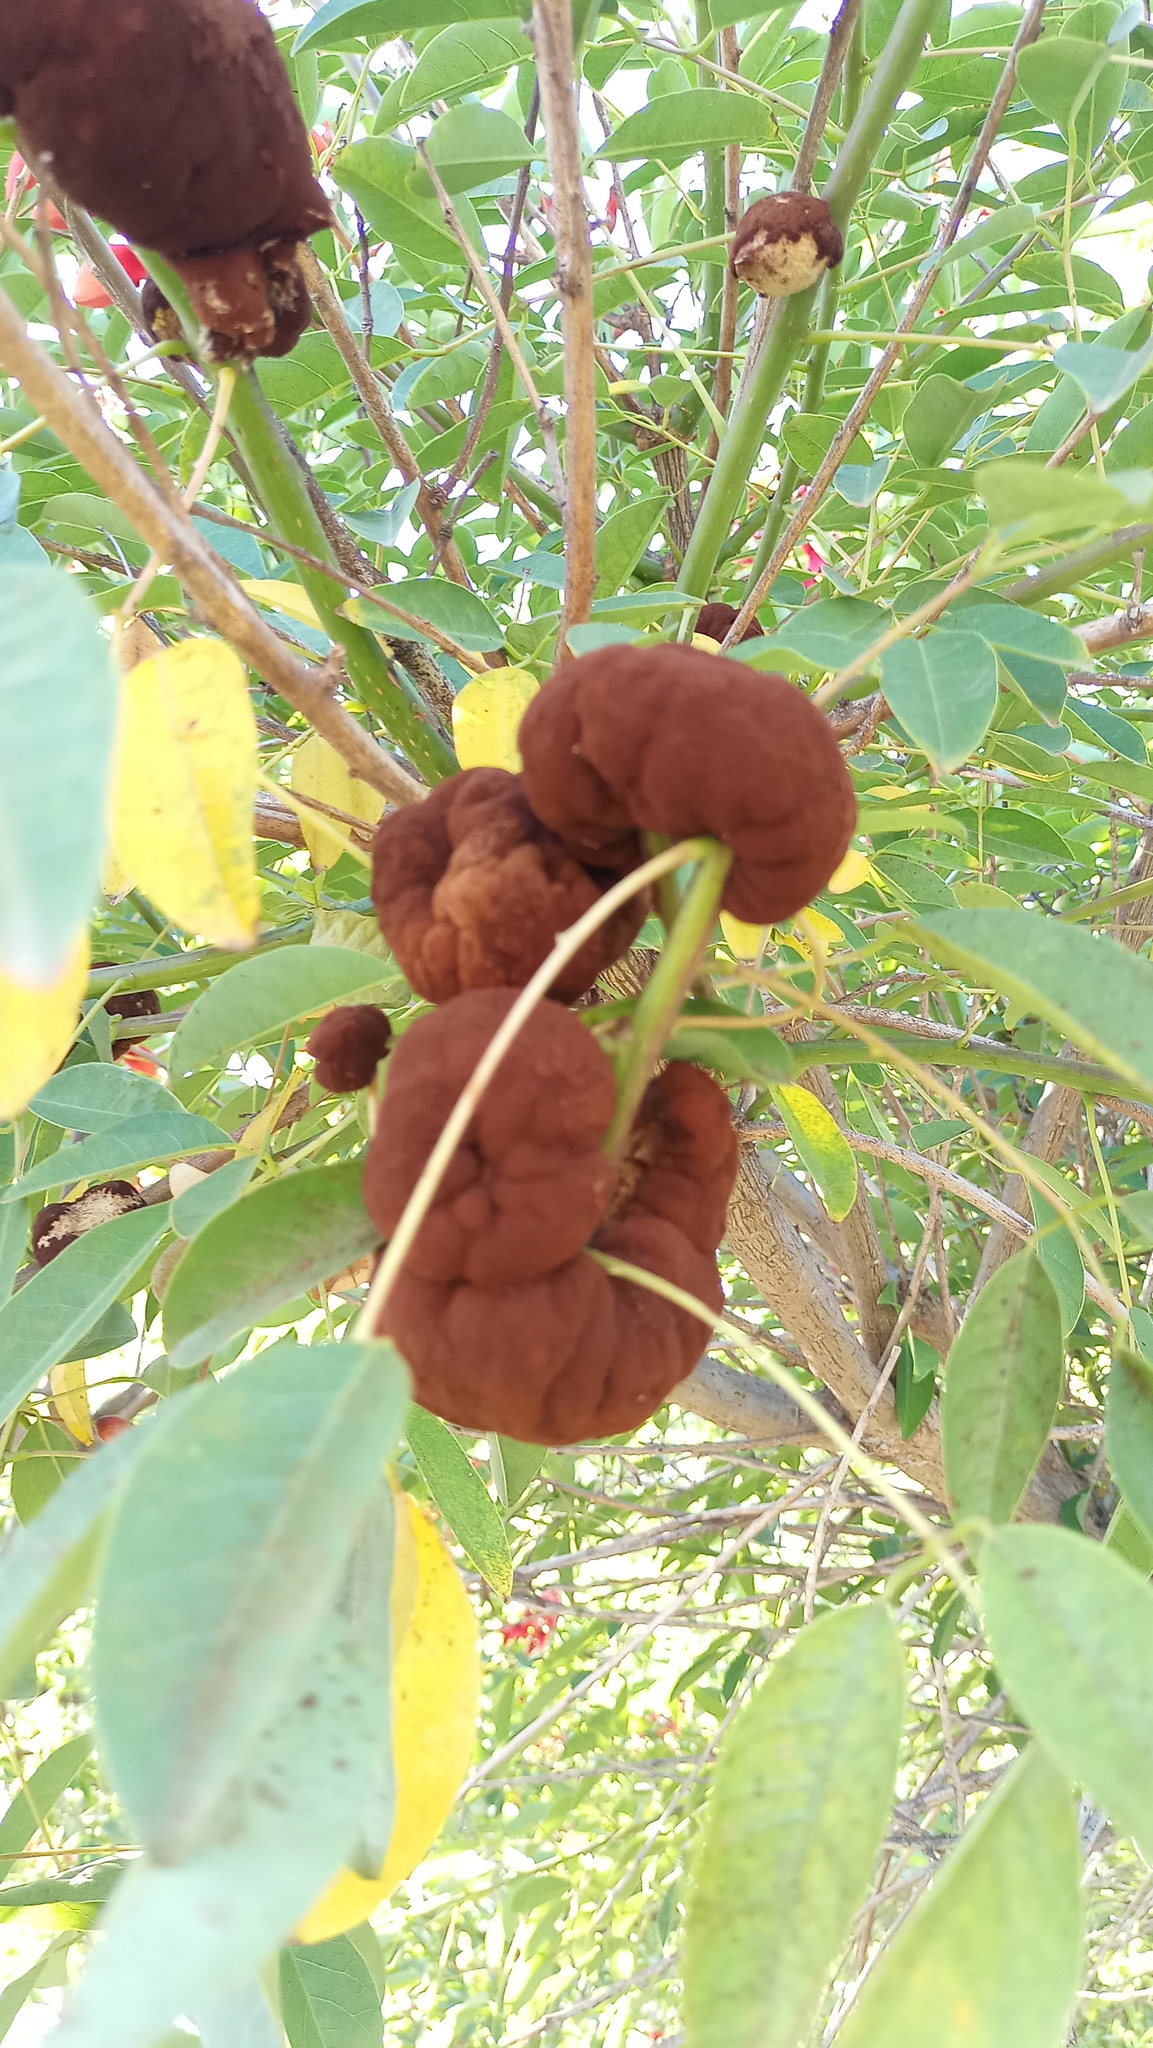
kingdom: Fungi
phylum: Basidiomycota
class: Pucciniomycetes
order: Pucciniales
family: Raveneliaceae
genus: Ravenelia
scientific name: Ravenelia platensis
